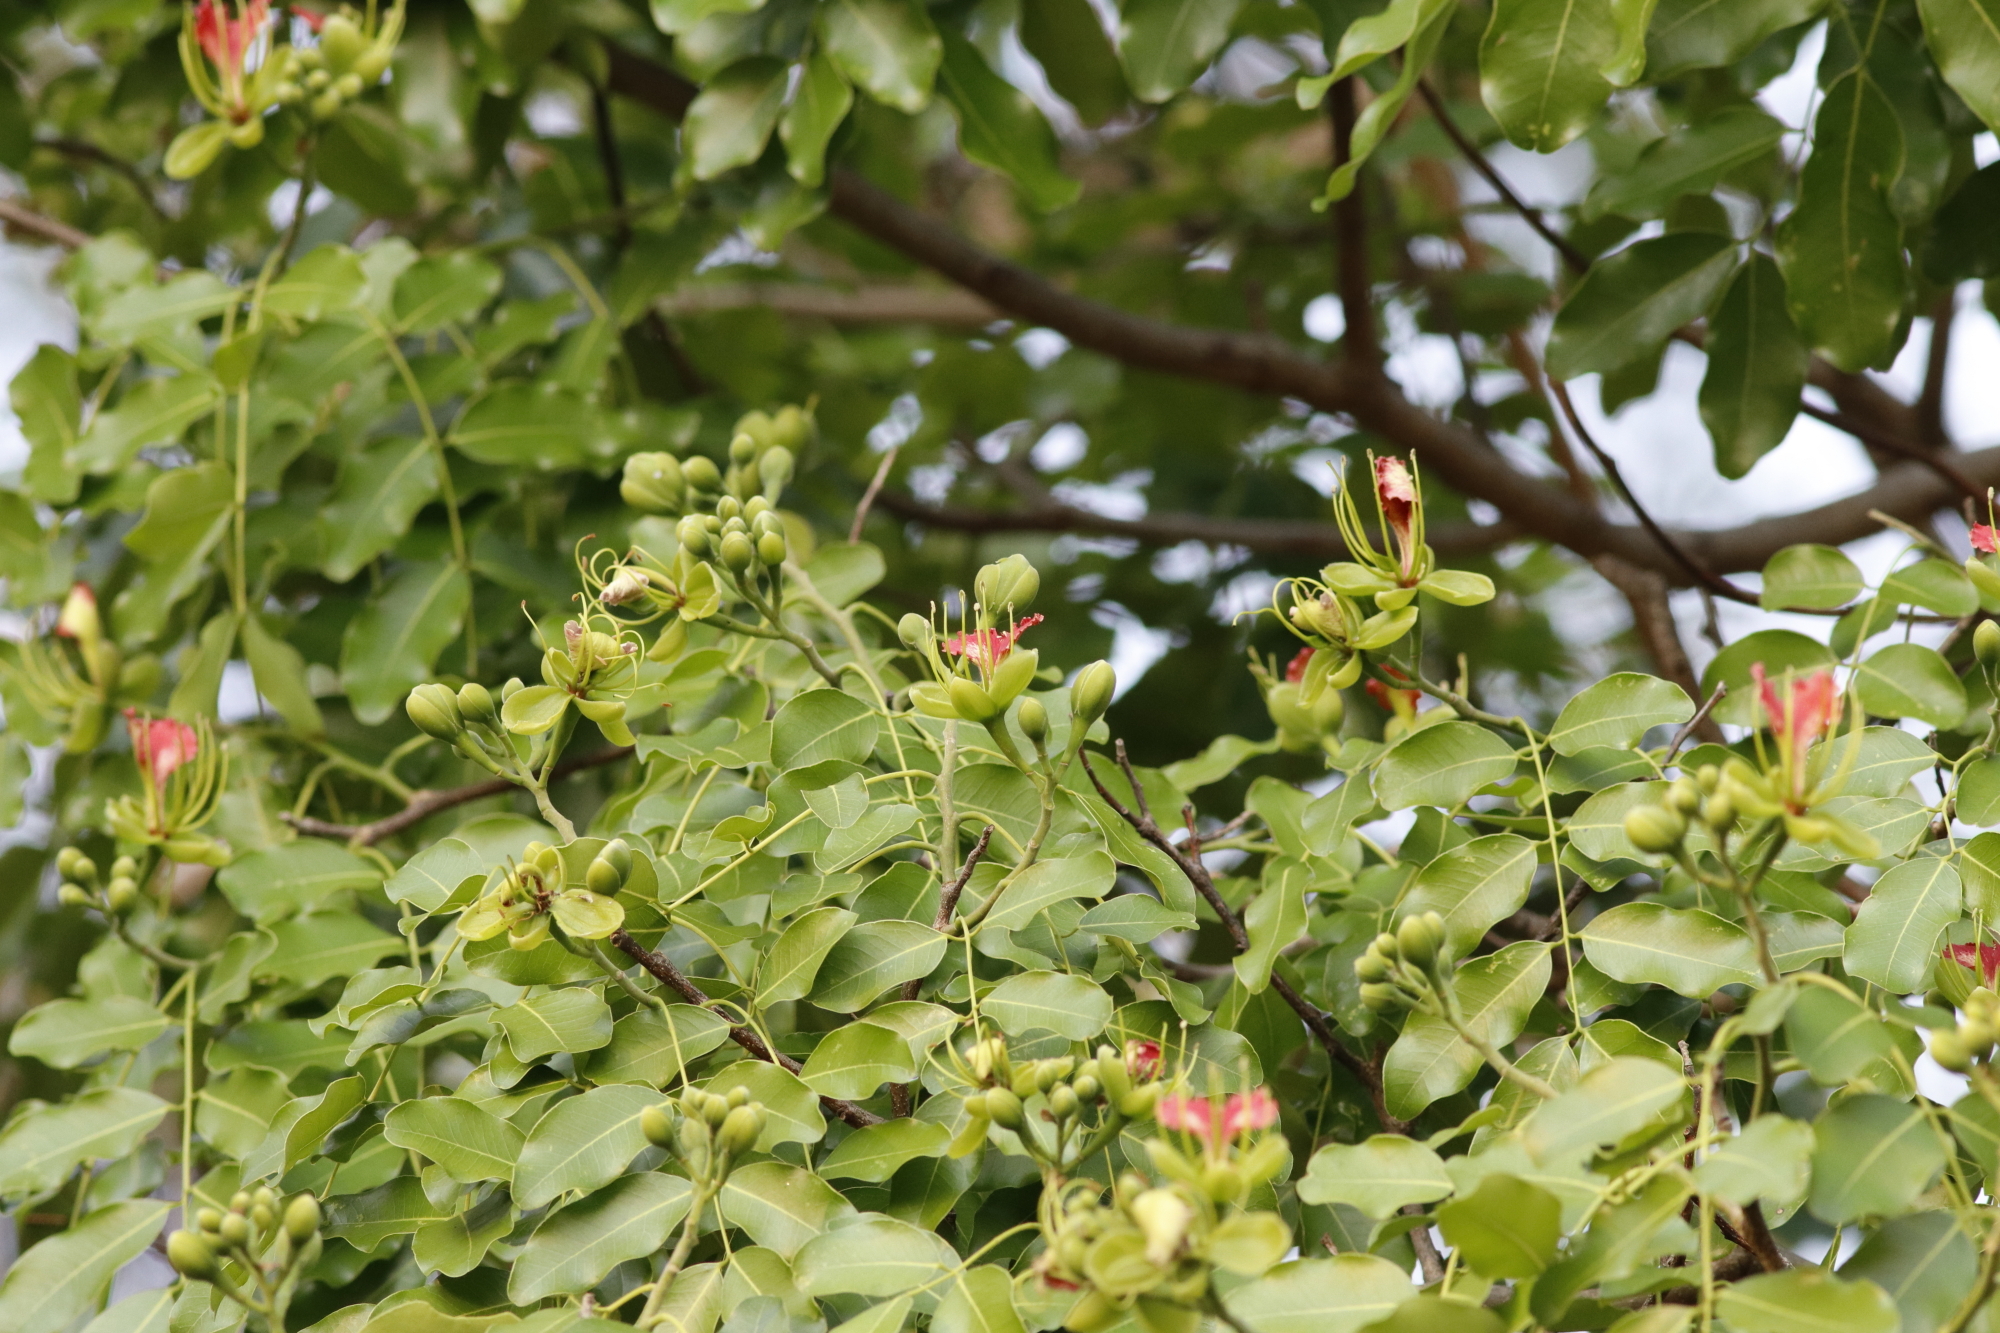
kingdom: Plantae
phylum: Tracheophyta
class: Magnoliopsida
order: Fabales
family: Fabaceae
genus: Afzelia
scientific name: Afzelia quanzensis
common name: Pod mahogany
